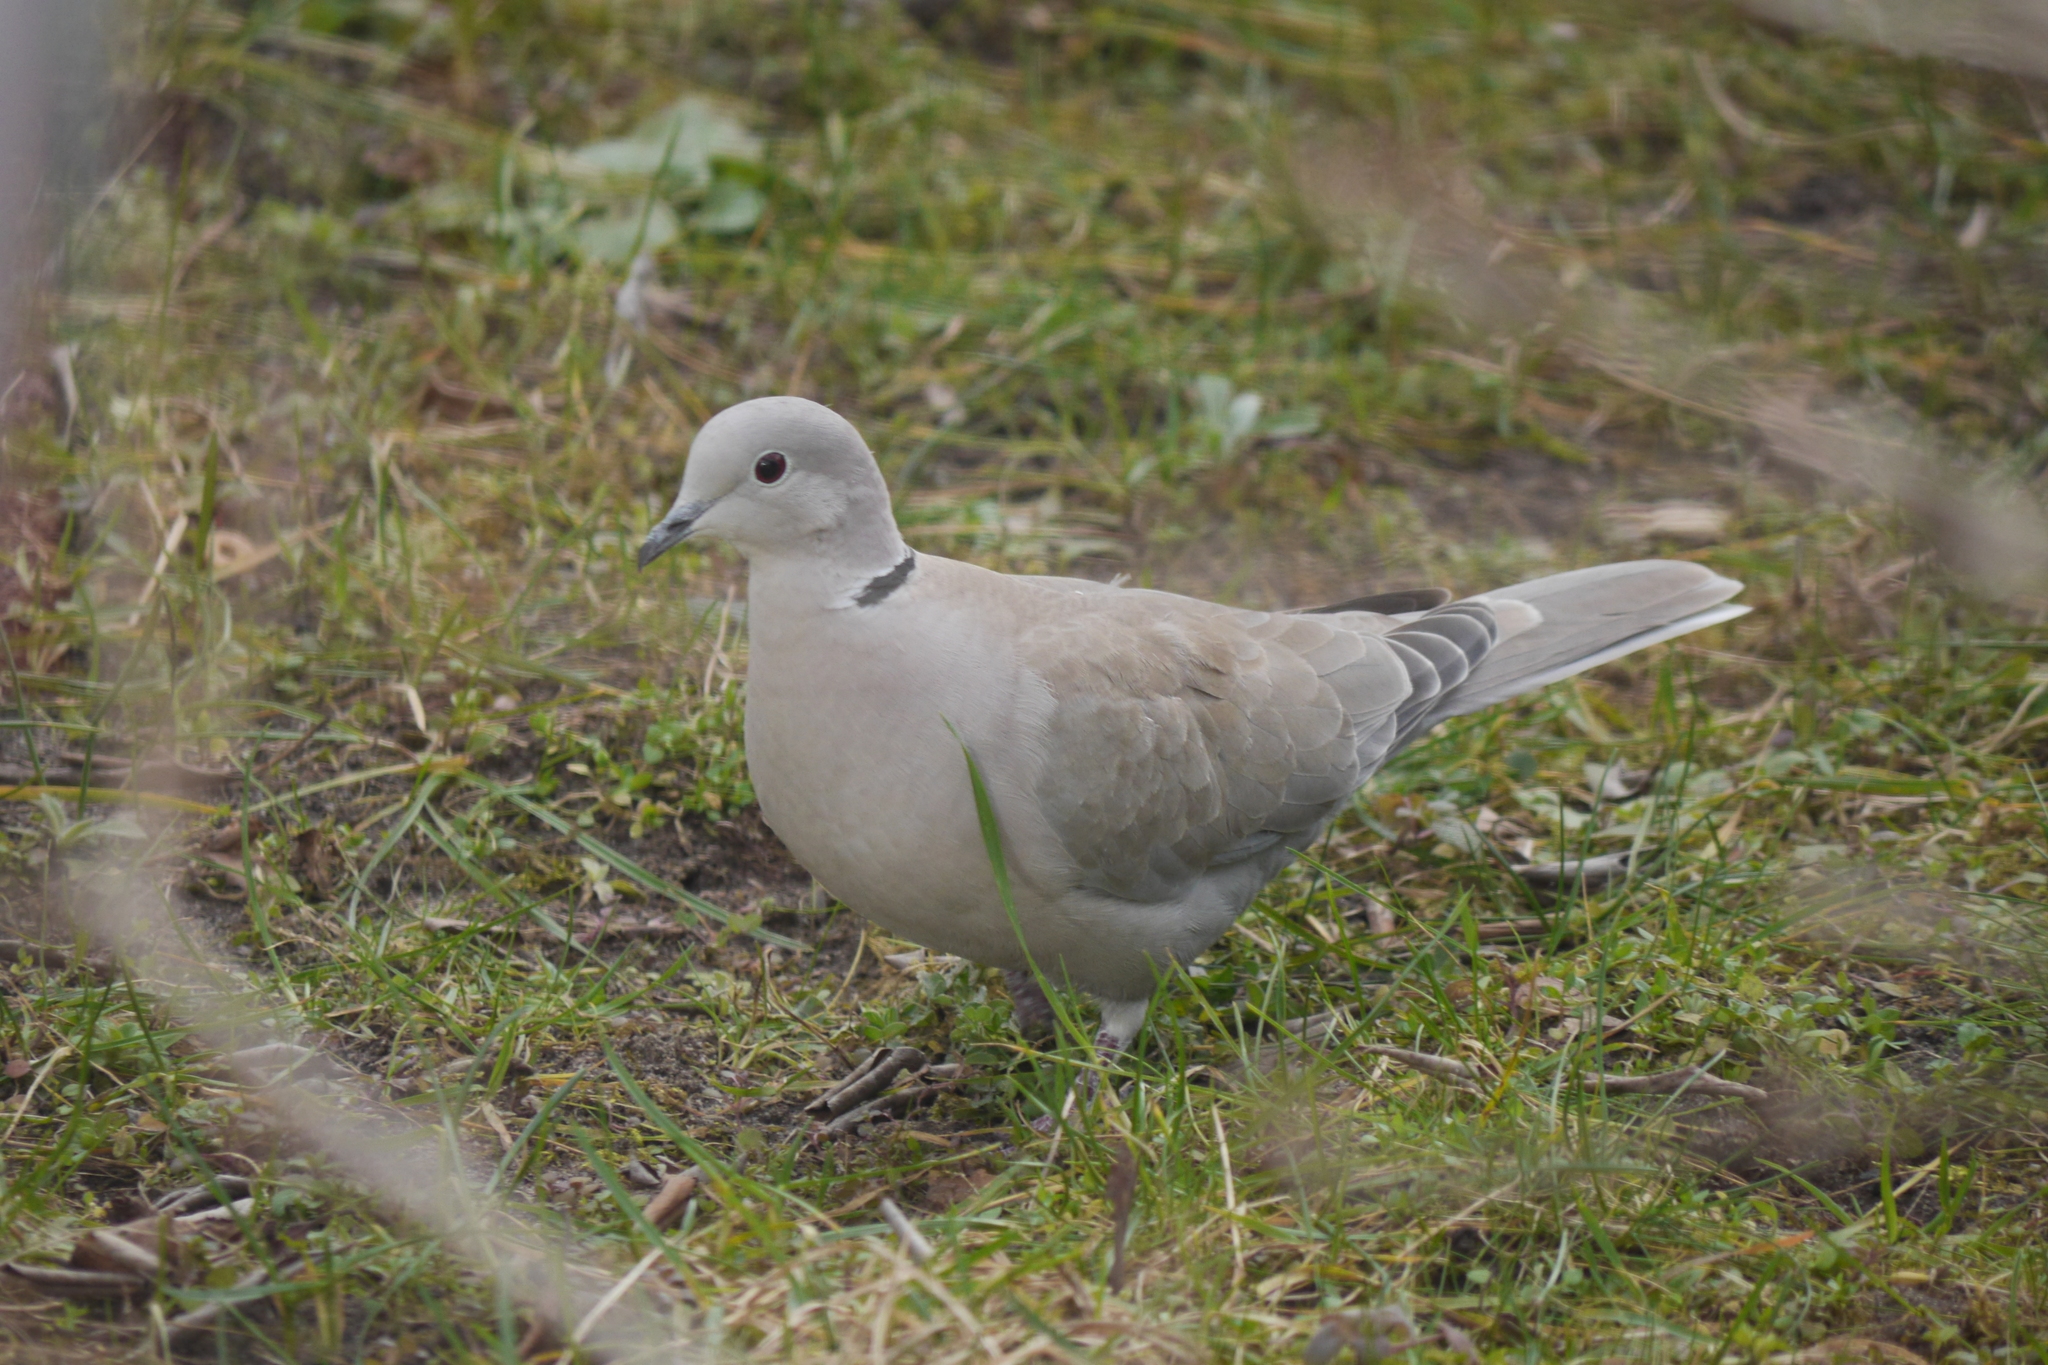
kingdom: Animalia
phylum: Chordata
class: Aves
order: Columbiformes
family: Columbidae
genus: Streptopelia
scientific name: Streptopelia decaocto
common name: Eurasian collared dove
